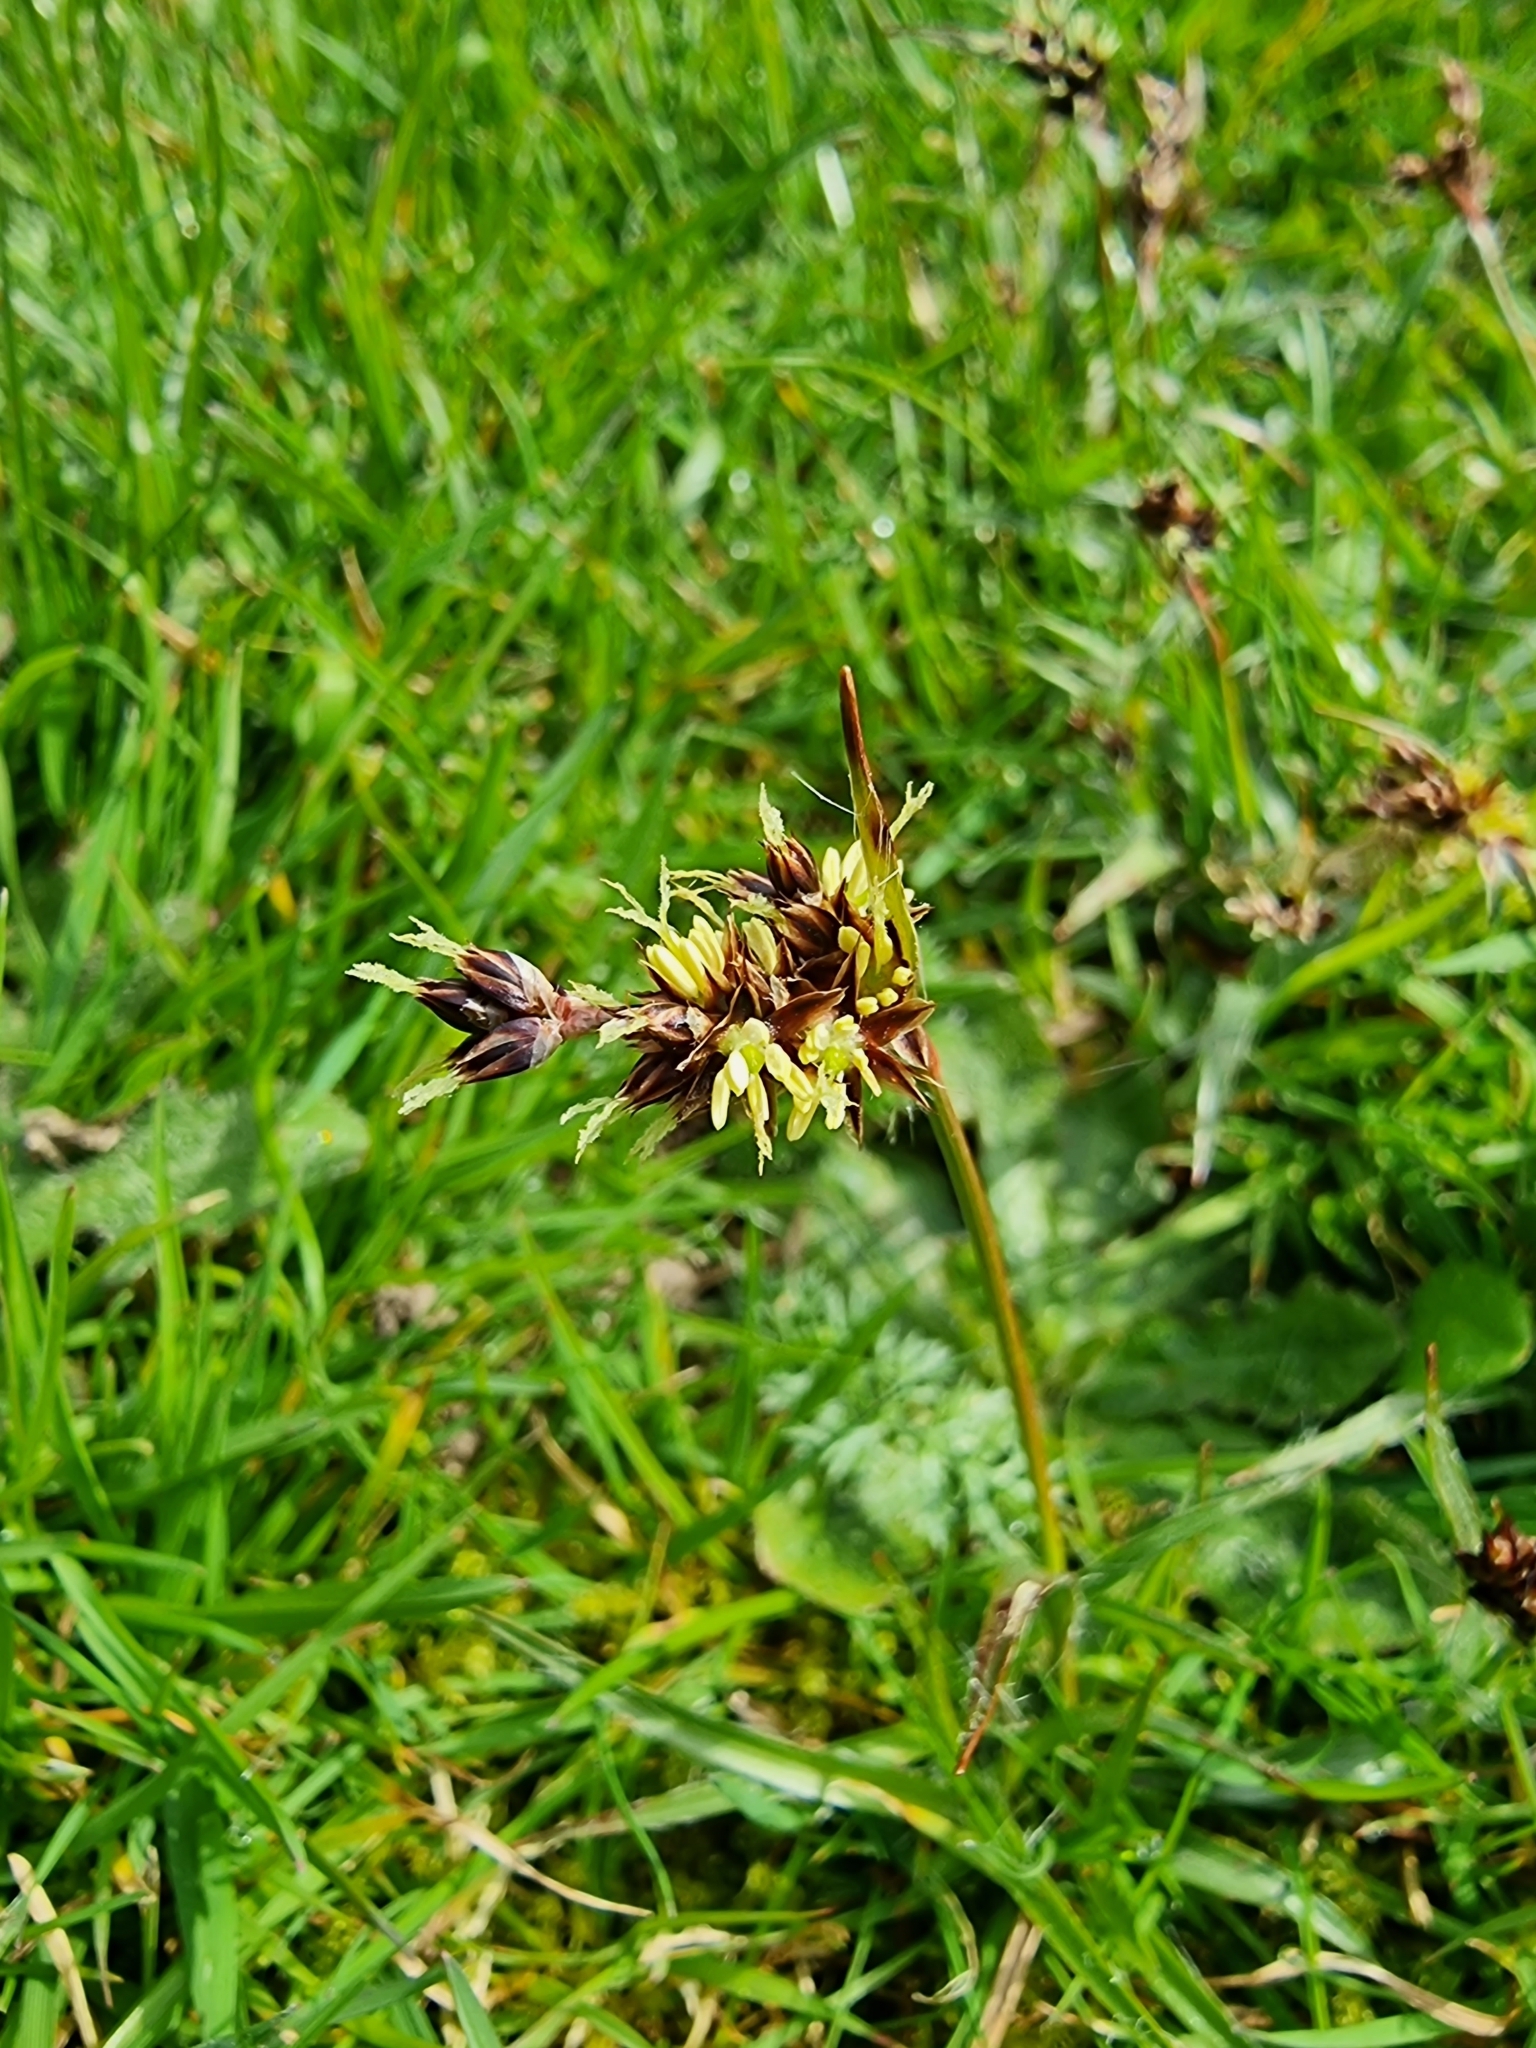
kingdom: Plantae
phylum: Tracheophyta
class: Liliopsida
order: Poales
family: Juncaceae
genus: Luzula
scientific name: Luzula campestris
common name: Field wood-rush
